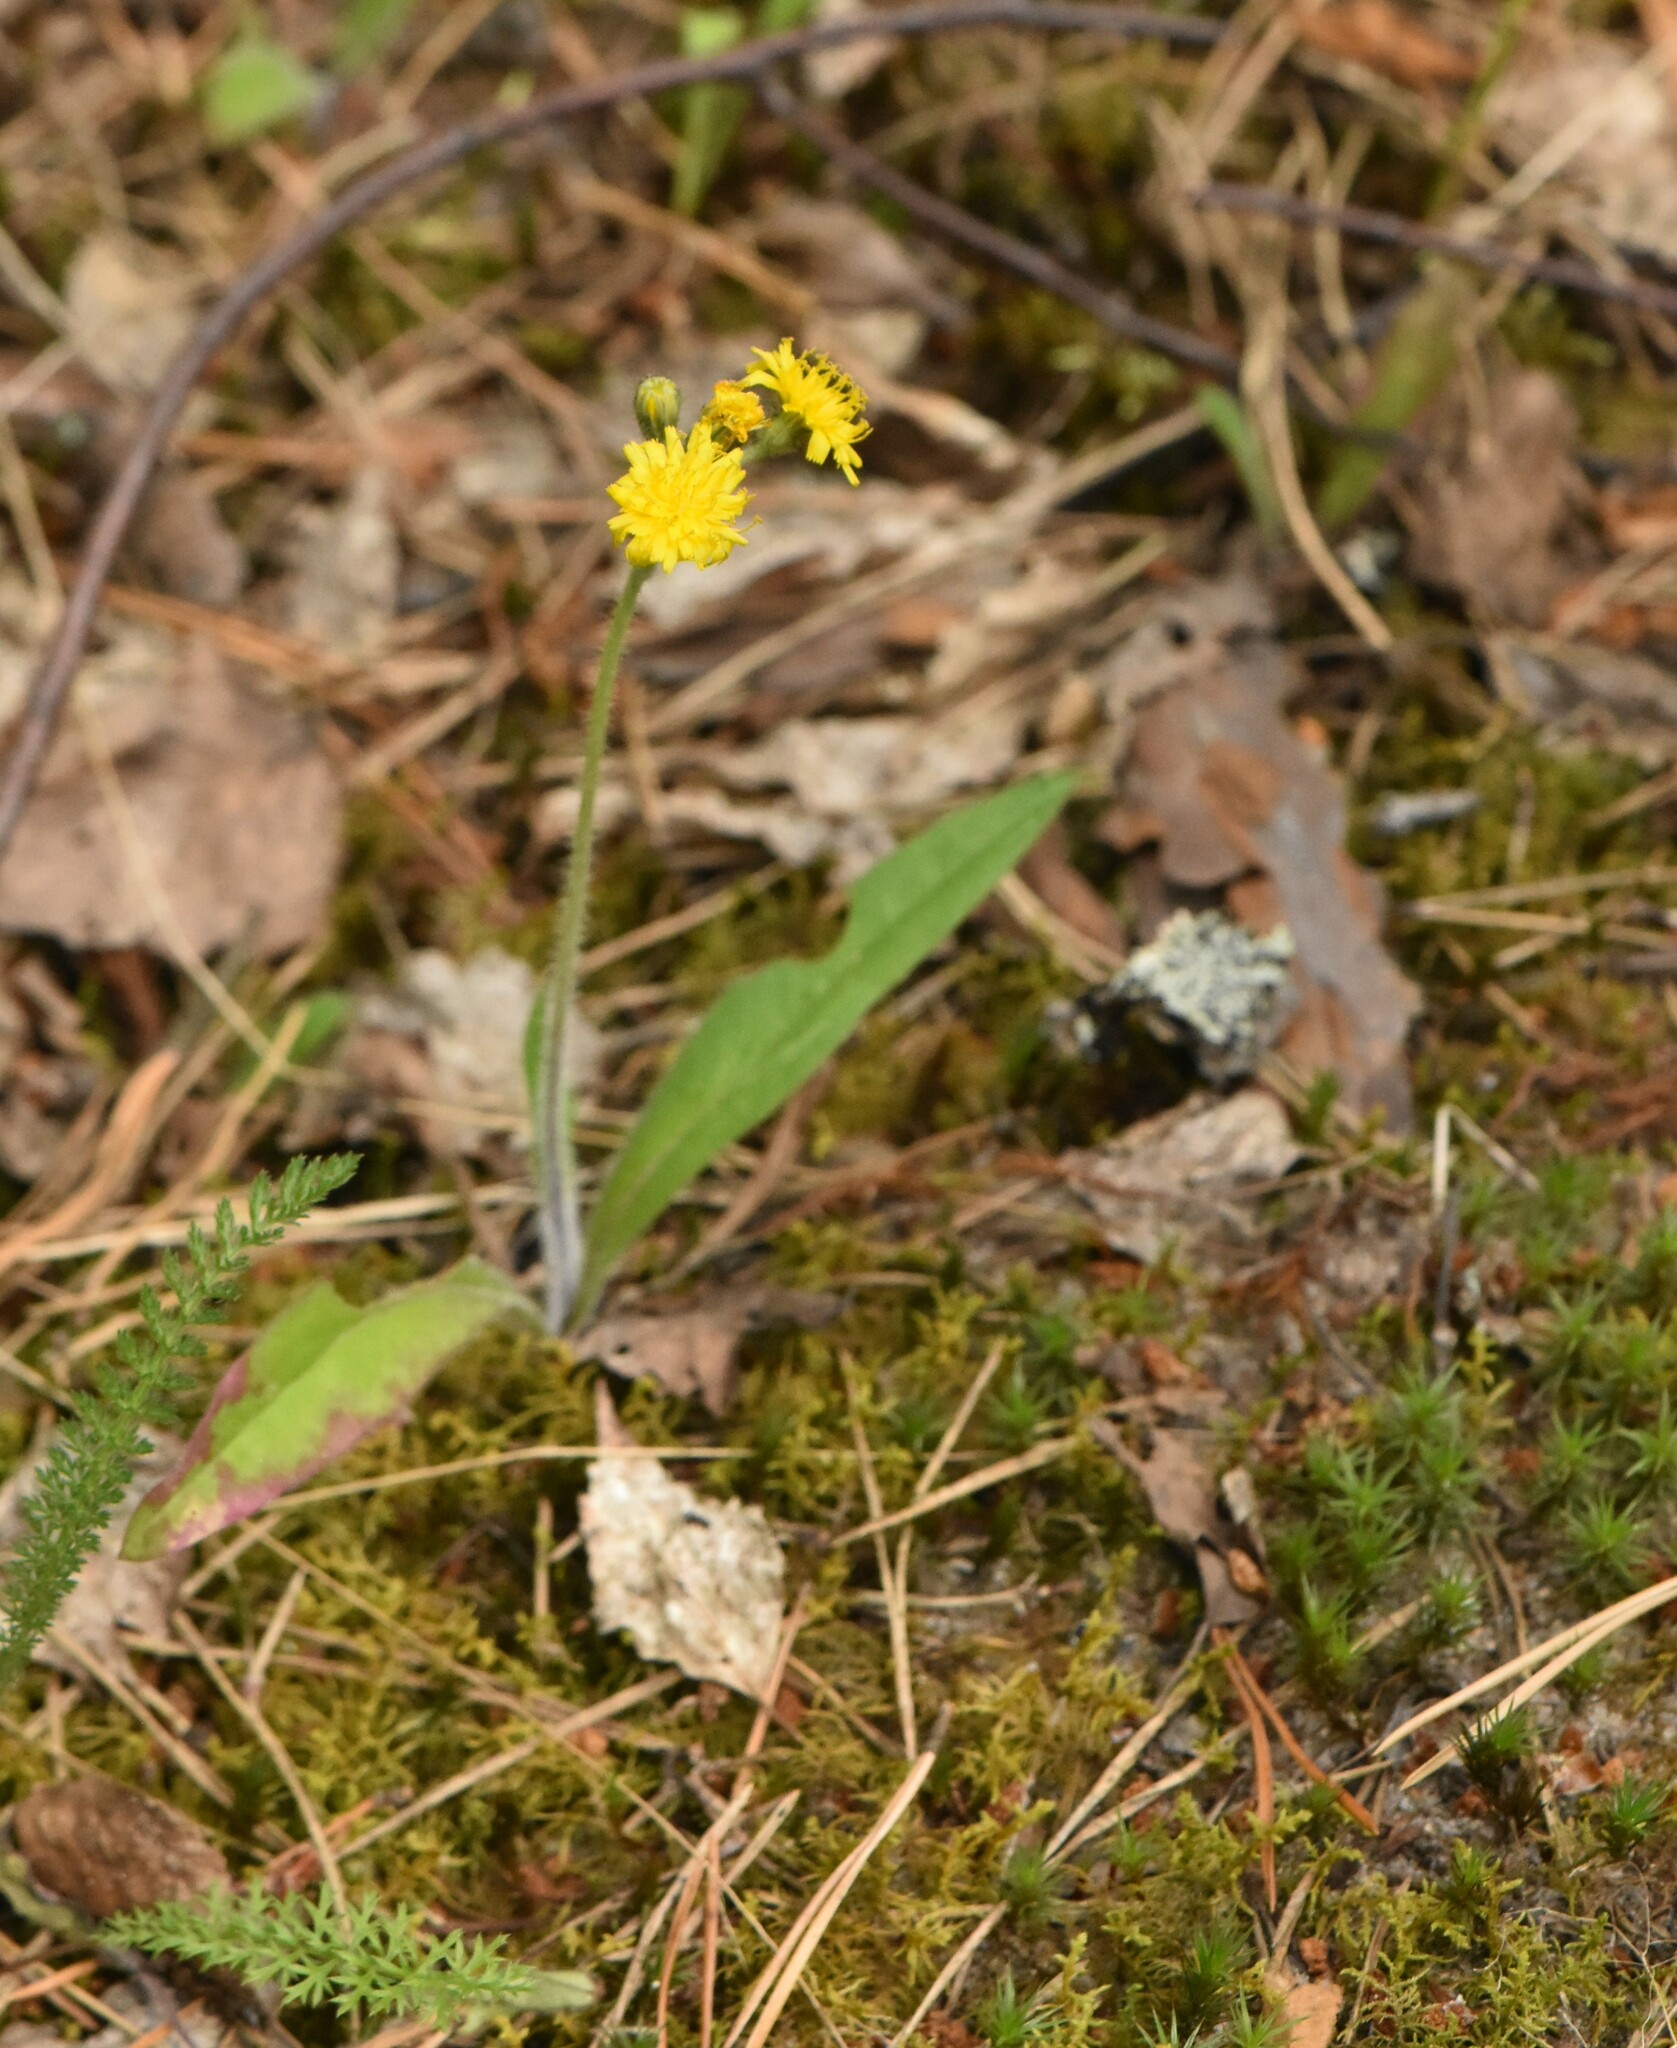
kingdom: Plantae
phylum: Tracheophyta
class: Magnoliopsida
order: Asterales
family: Asteraceae
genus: Pilosella
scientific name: Pilosella officinarum
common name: Mouse-ear hawkweed
